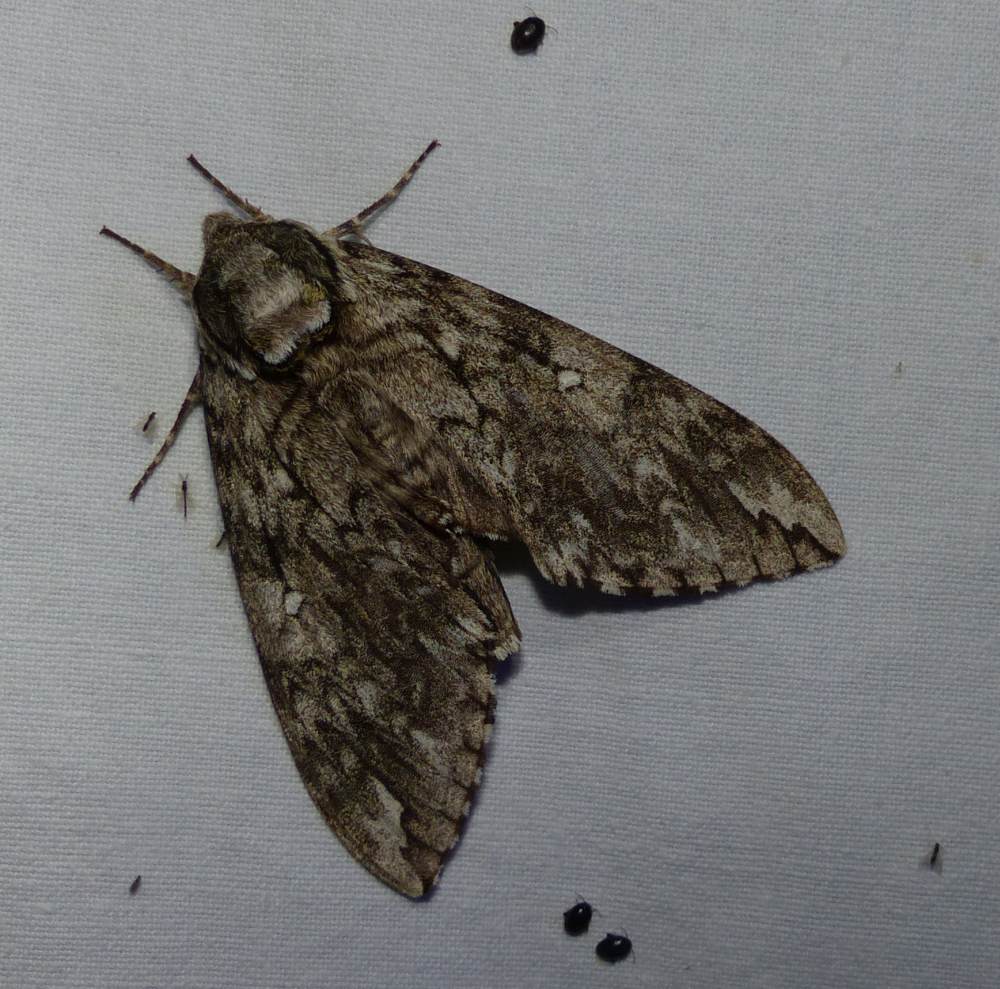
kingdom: Animalia
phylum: Arthropoda
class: Insecta
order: Lepidoptera
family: Sphingidae
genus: Ceratomia
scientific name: Ceratomia undulosa
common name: Waved sphinx
